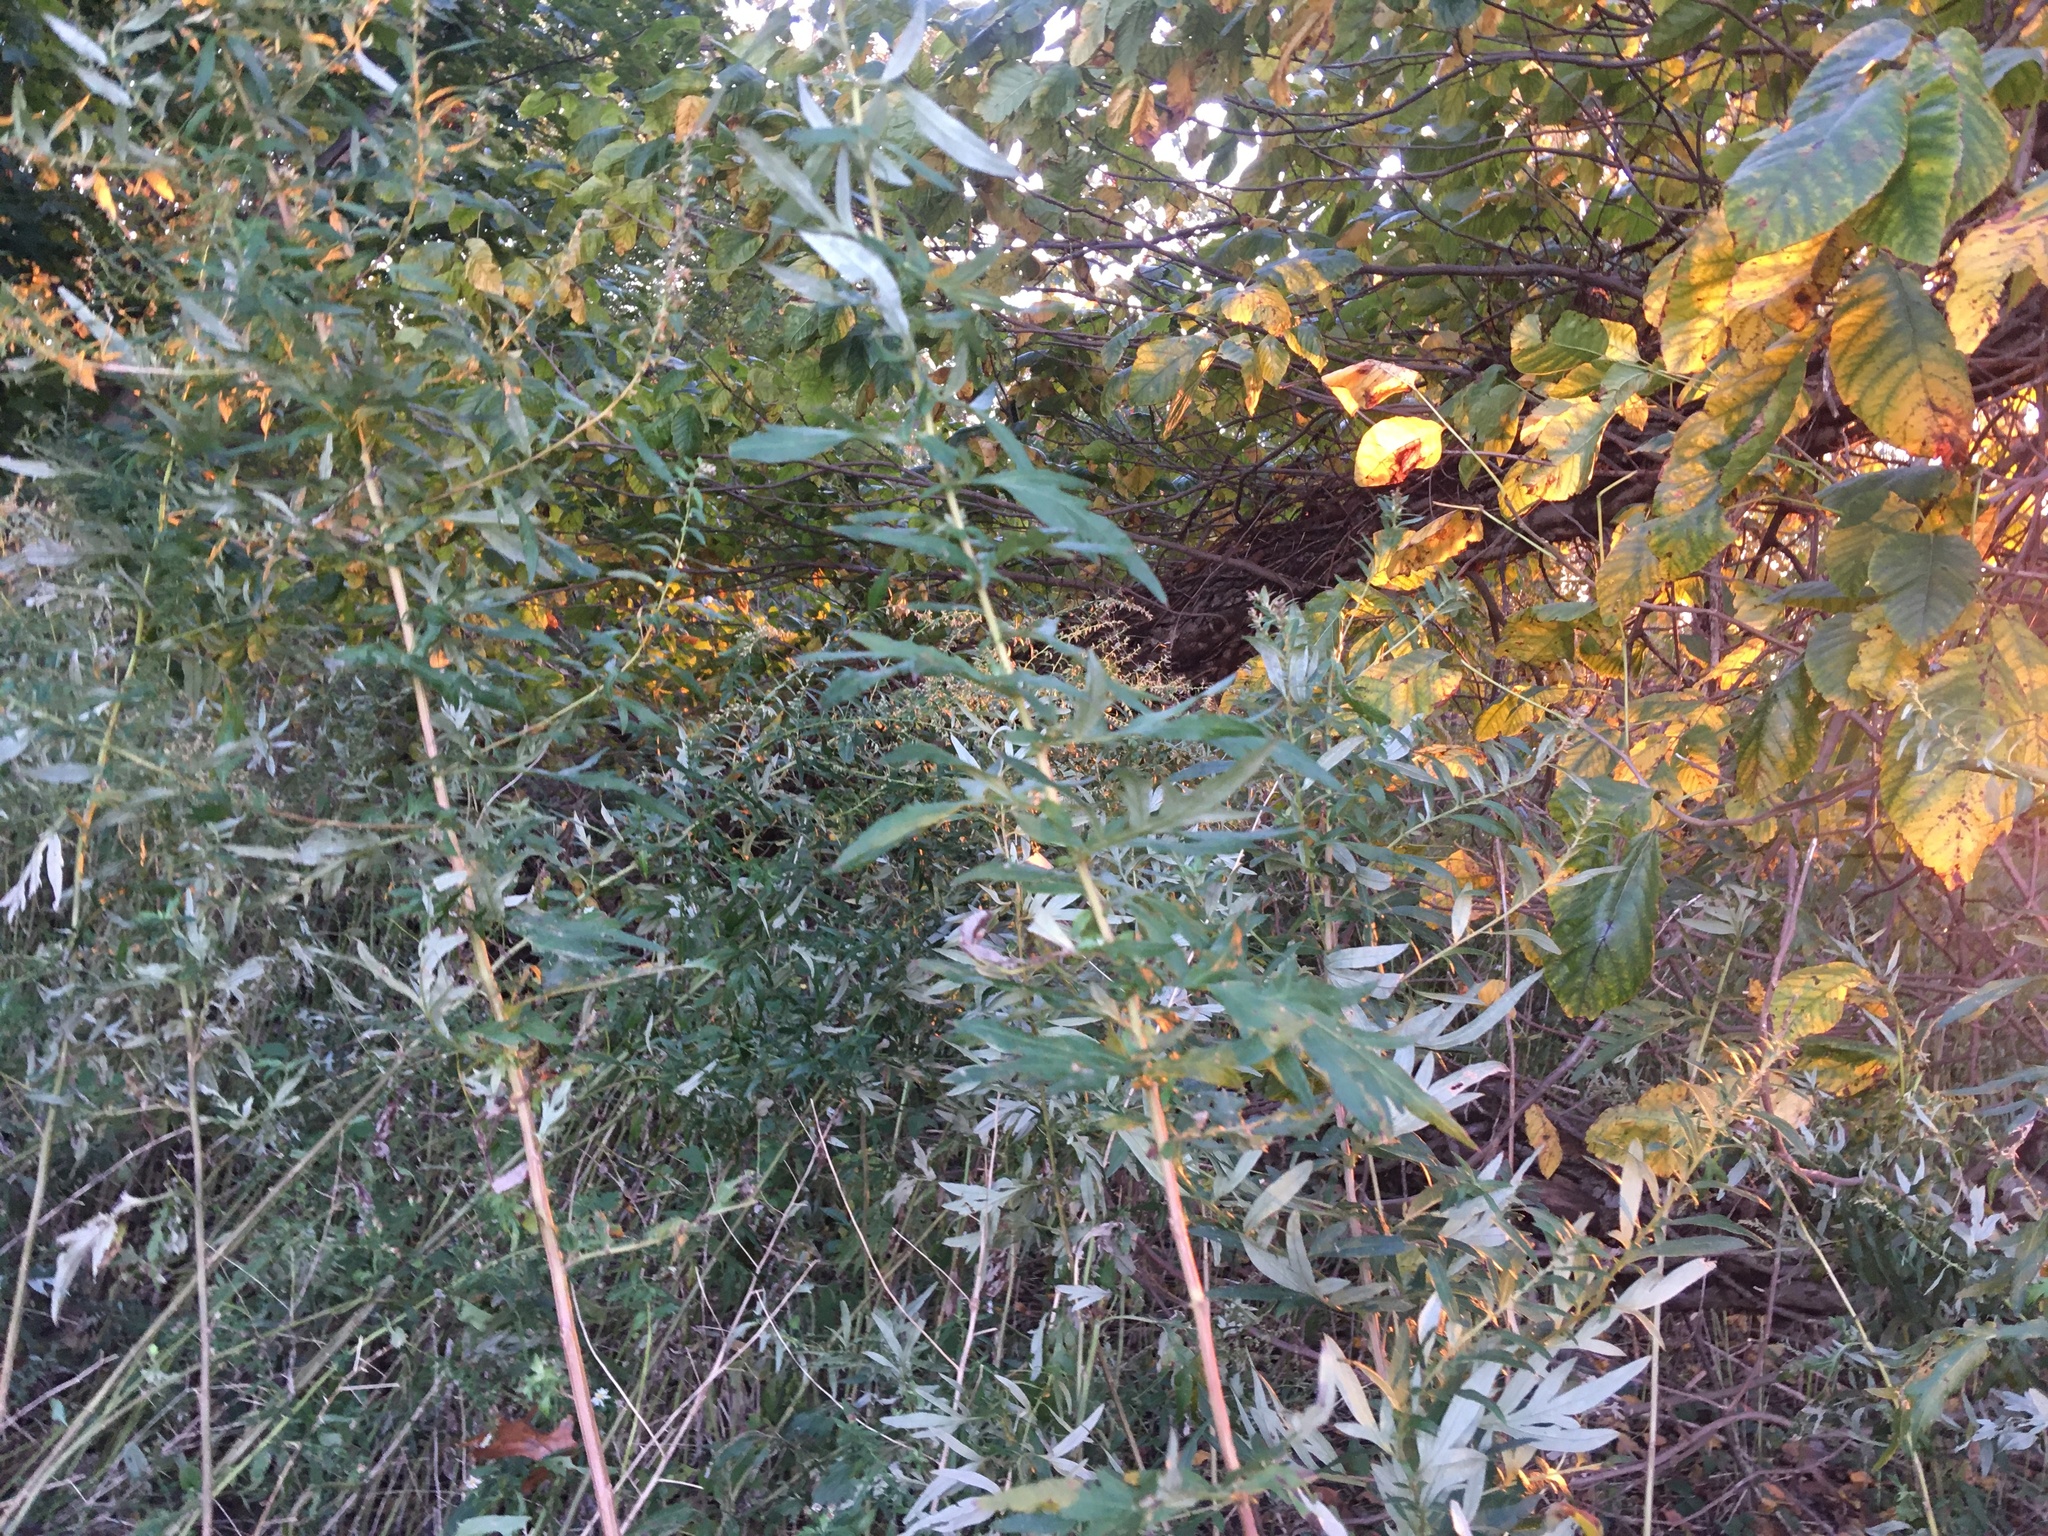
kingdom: Plantae
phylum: Tracheophyta
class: Magnoliopsida
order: Asterales
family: Asteraceae
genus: Artemisia
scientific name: Artemisia vulgaris
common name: Mugwort
